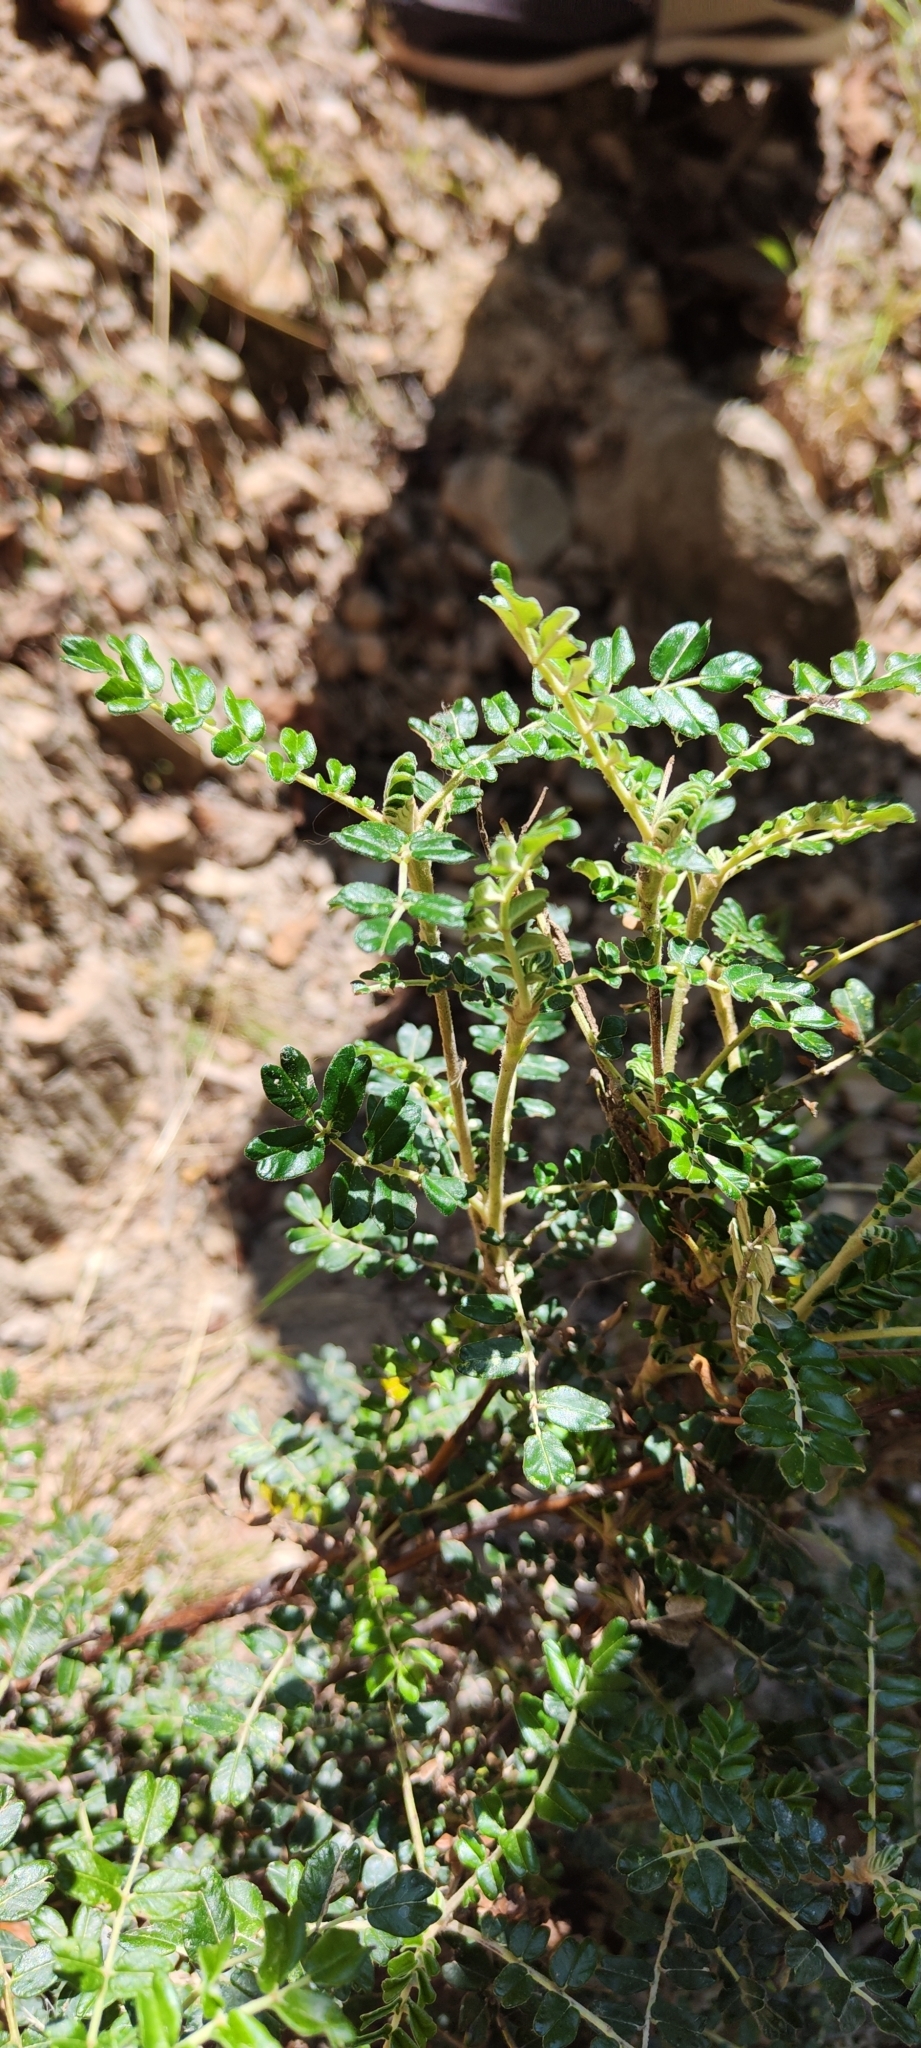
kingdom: Plantae
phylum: Tracheophyta
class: Magnoliopsida
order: Rosales
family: Rosaceae
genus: Polylepis
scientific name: Polylepis microphylla
